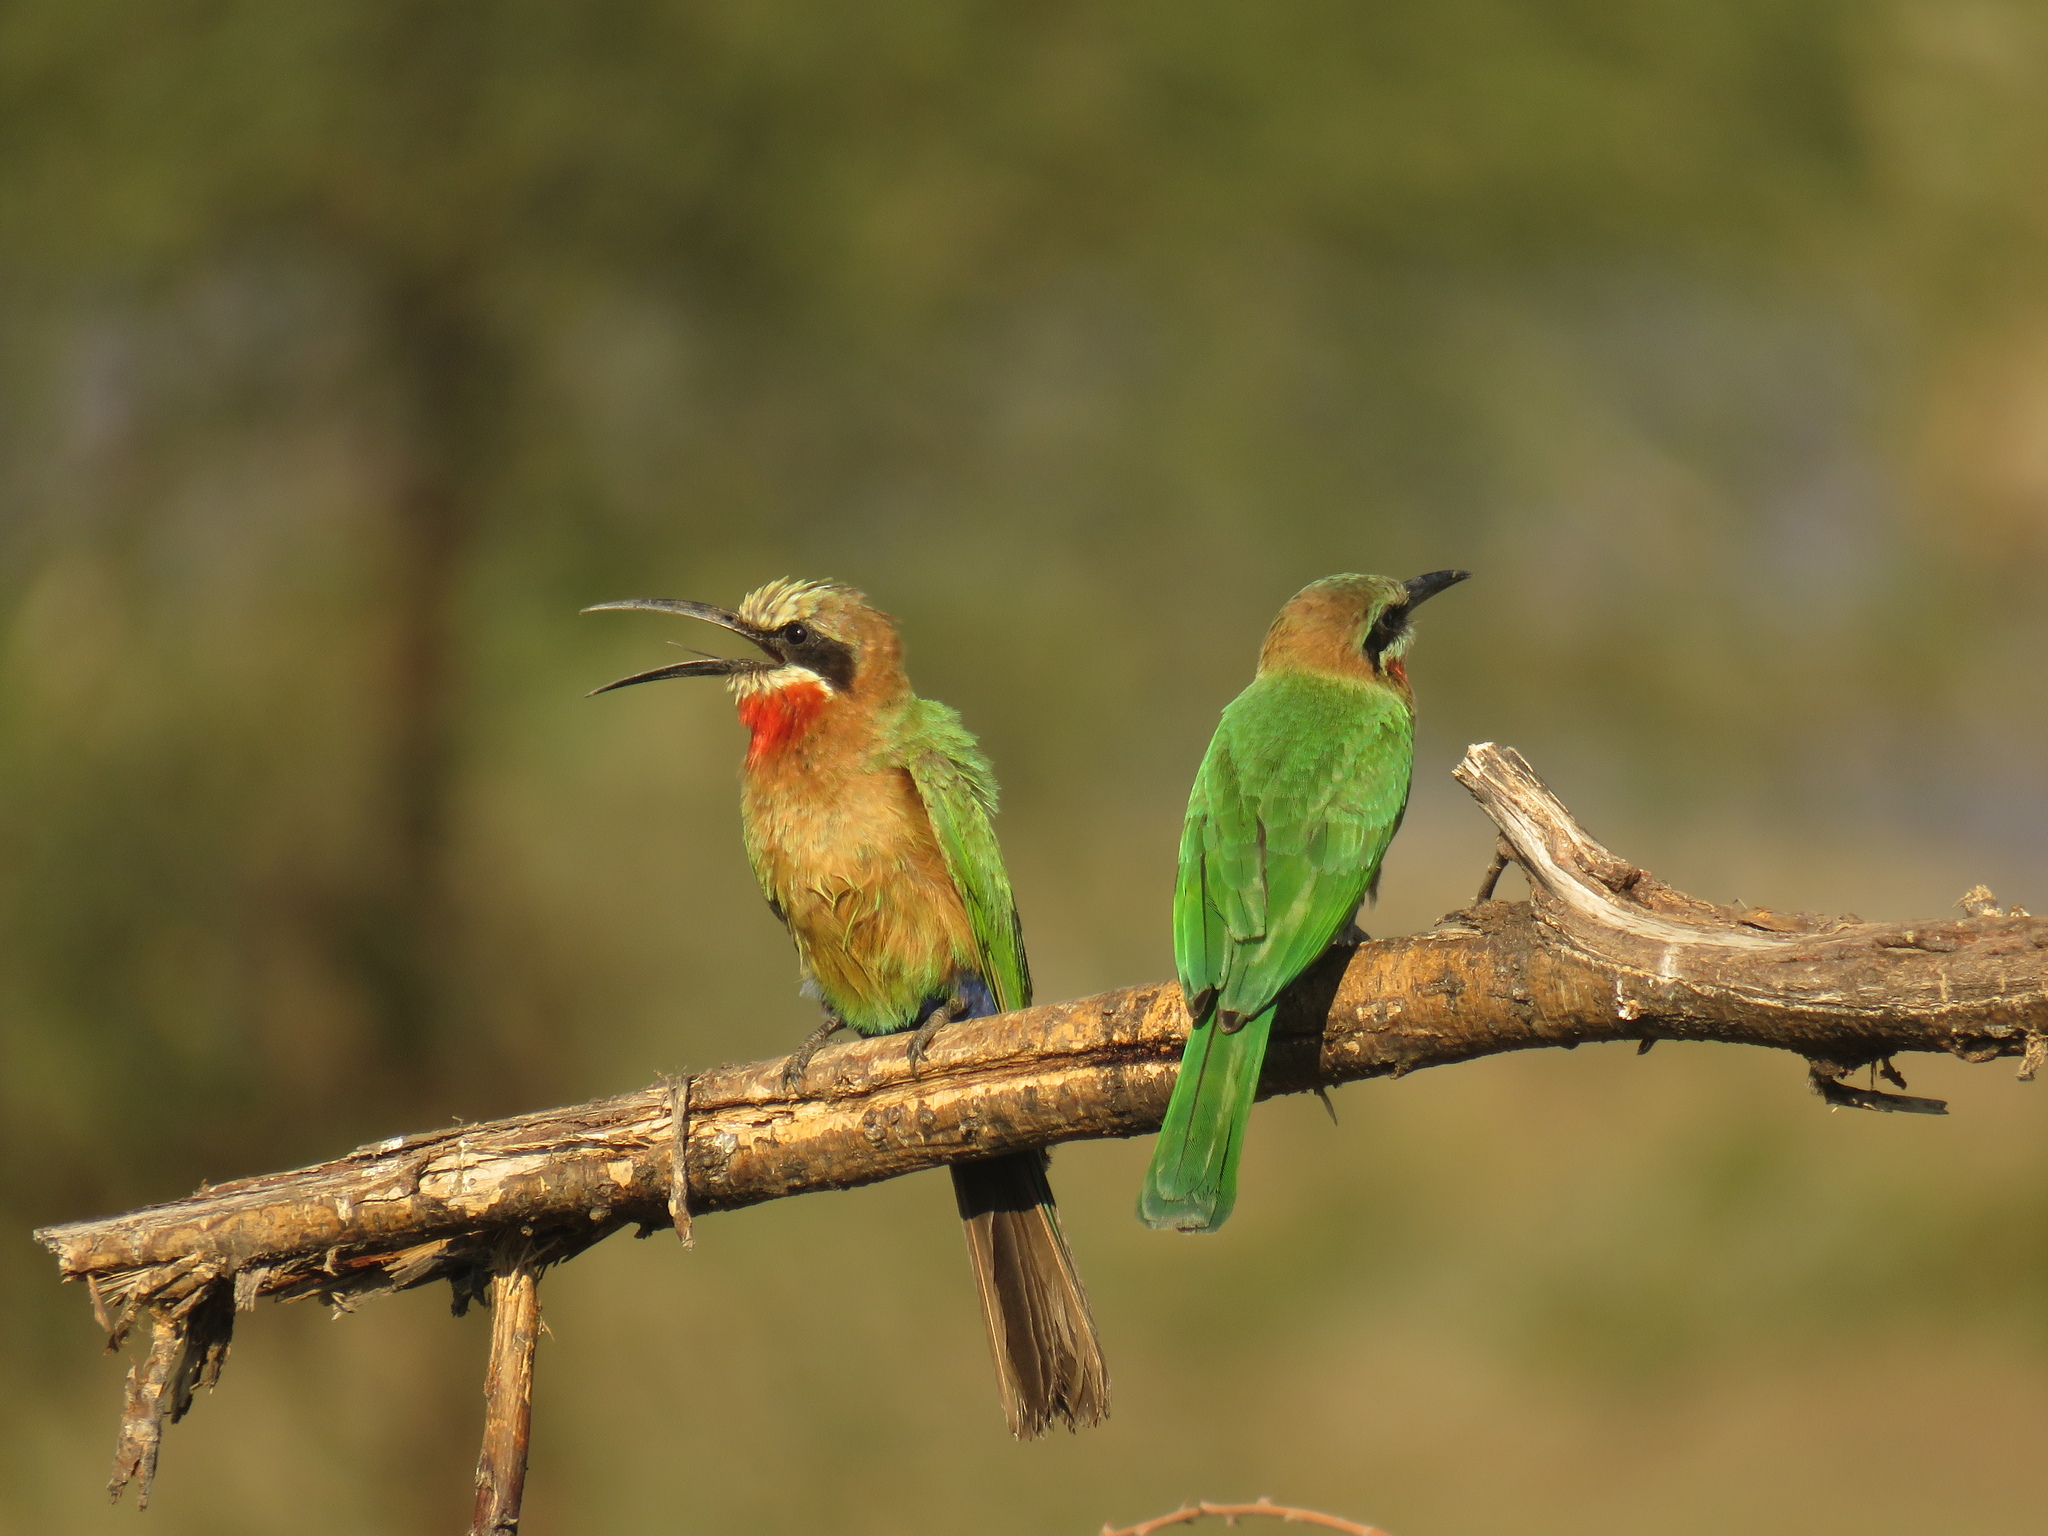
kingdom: Animalia
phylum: Chordata
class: Aves
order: Coraciiformes
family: Meropidae
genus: Merops
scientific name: Merops bullockoides
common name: White-fronted bee-eater
